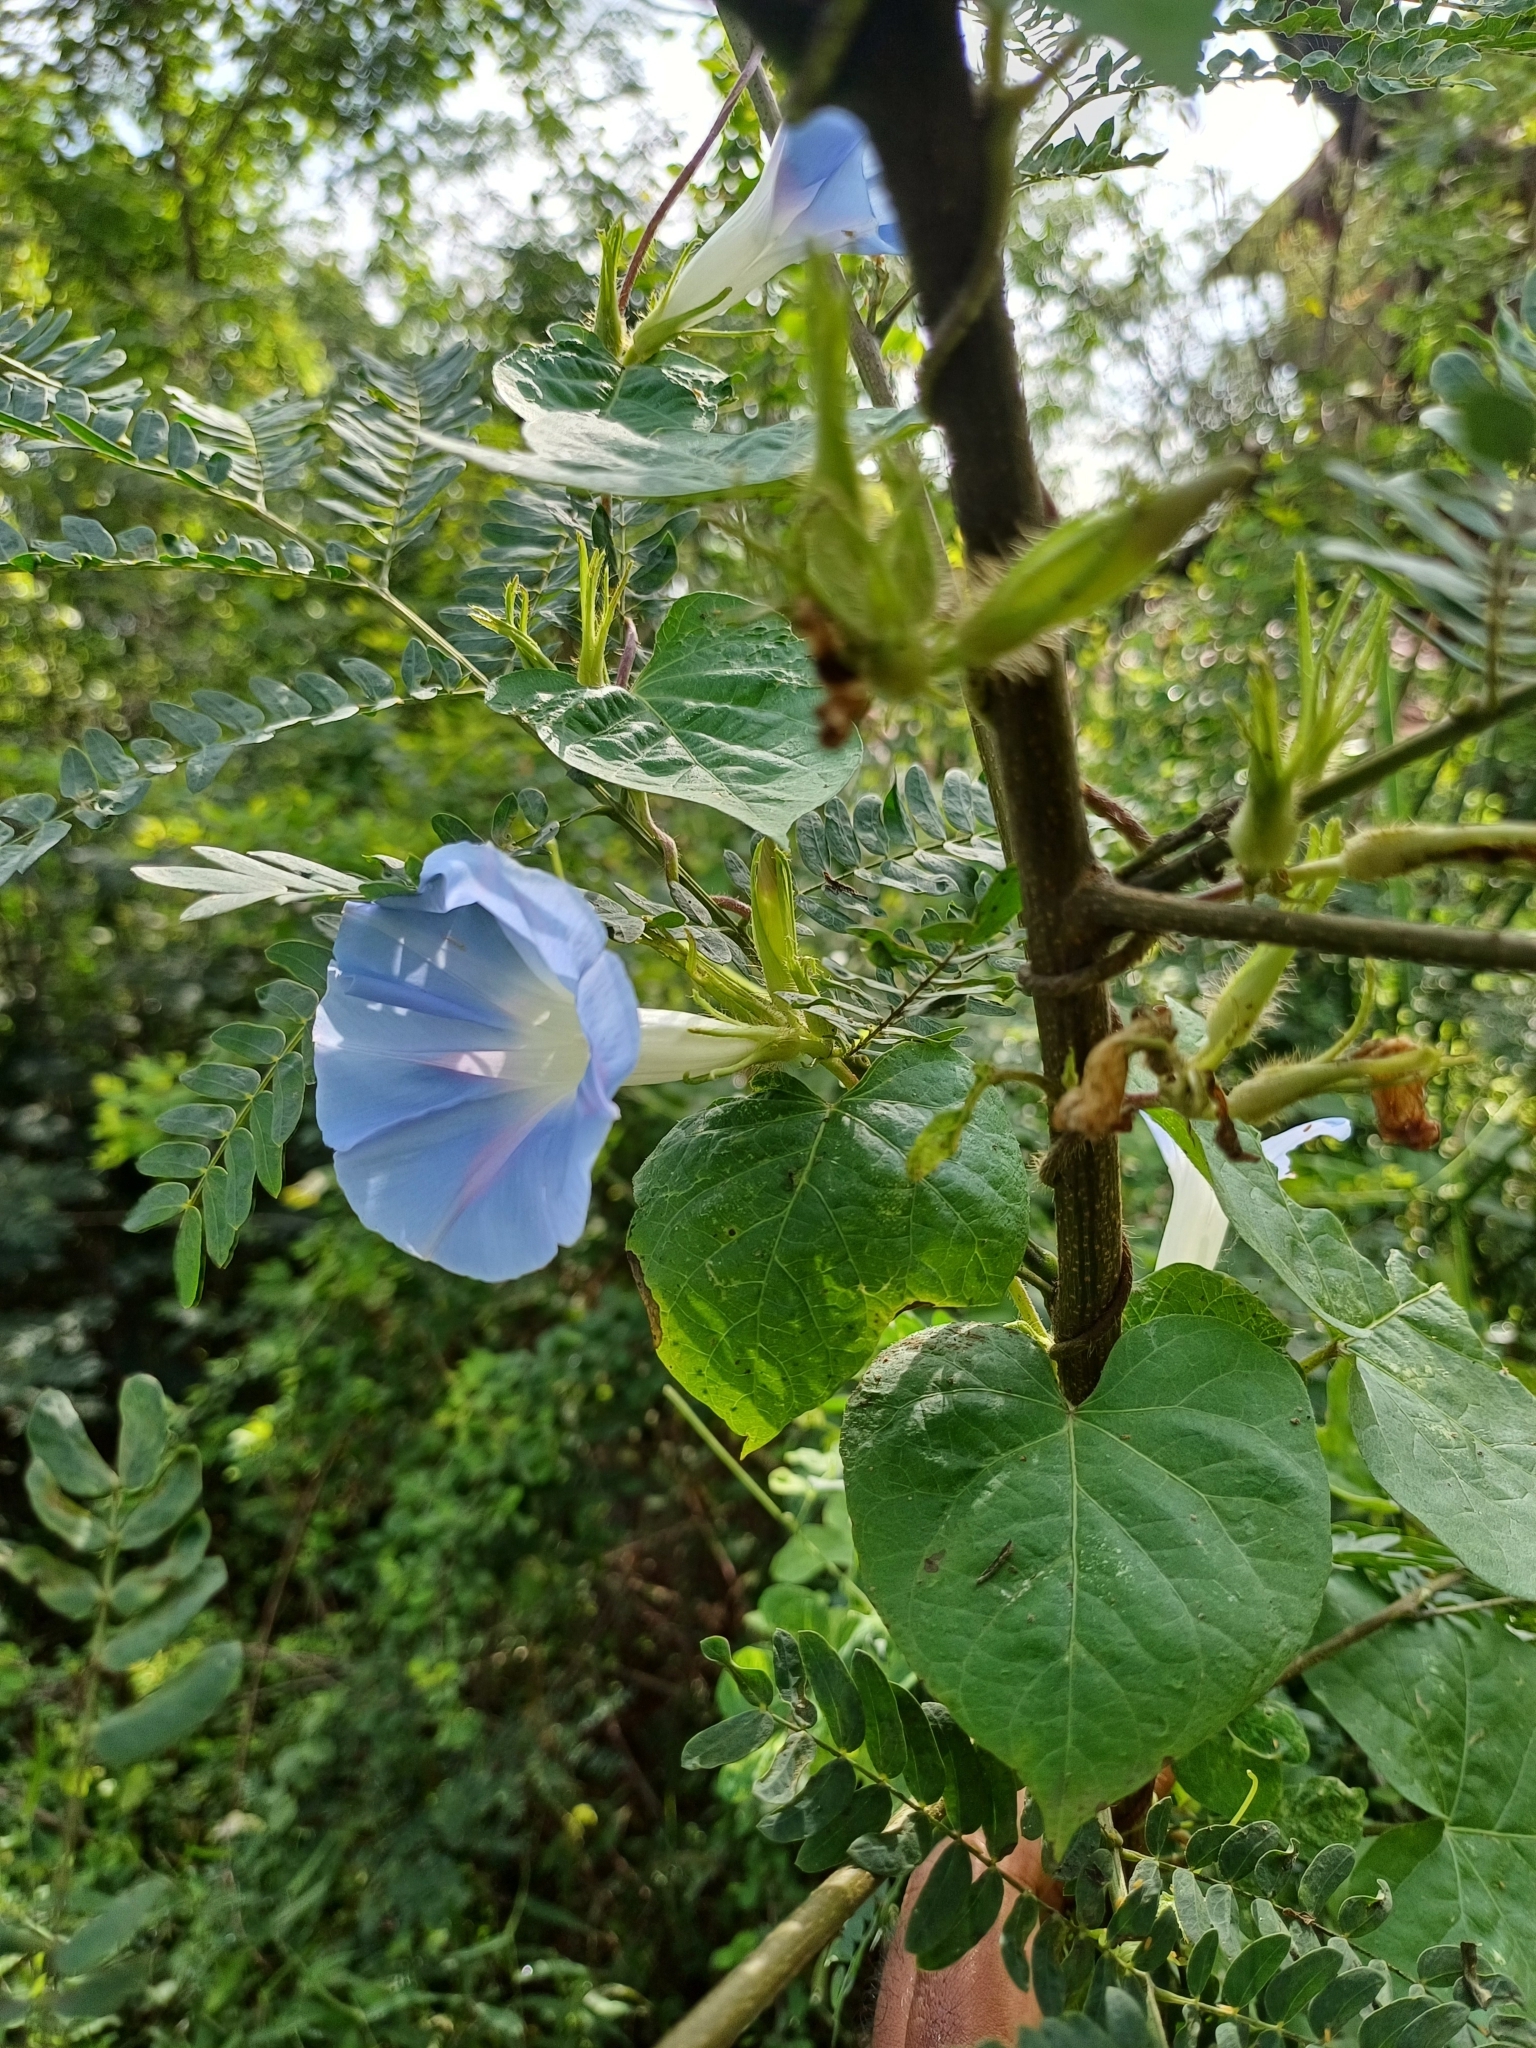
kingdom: Plantae
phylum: Tracheophyta
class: Magnoliopsida
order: Solanales
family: Convolvulaceae
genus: Ipomoea
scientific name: Ipomoea nil
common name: Japanese morning-glory
